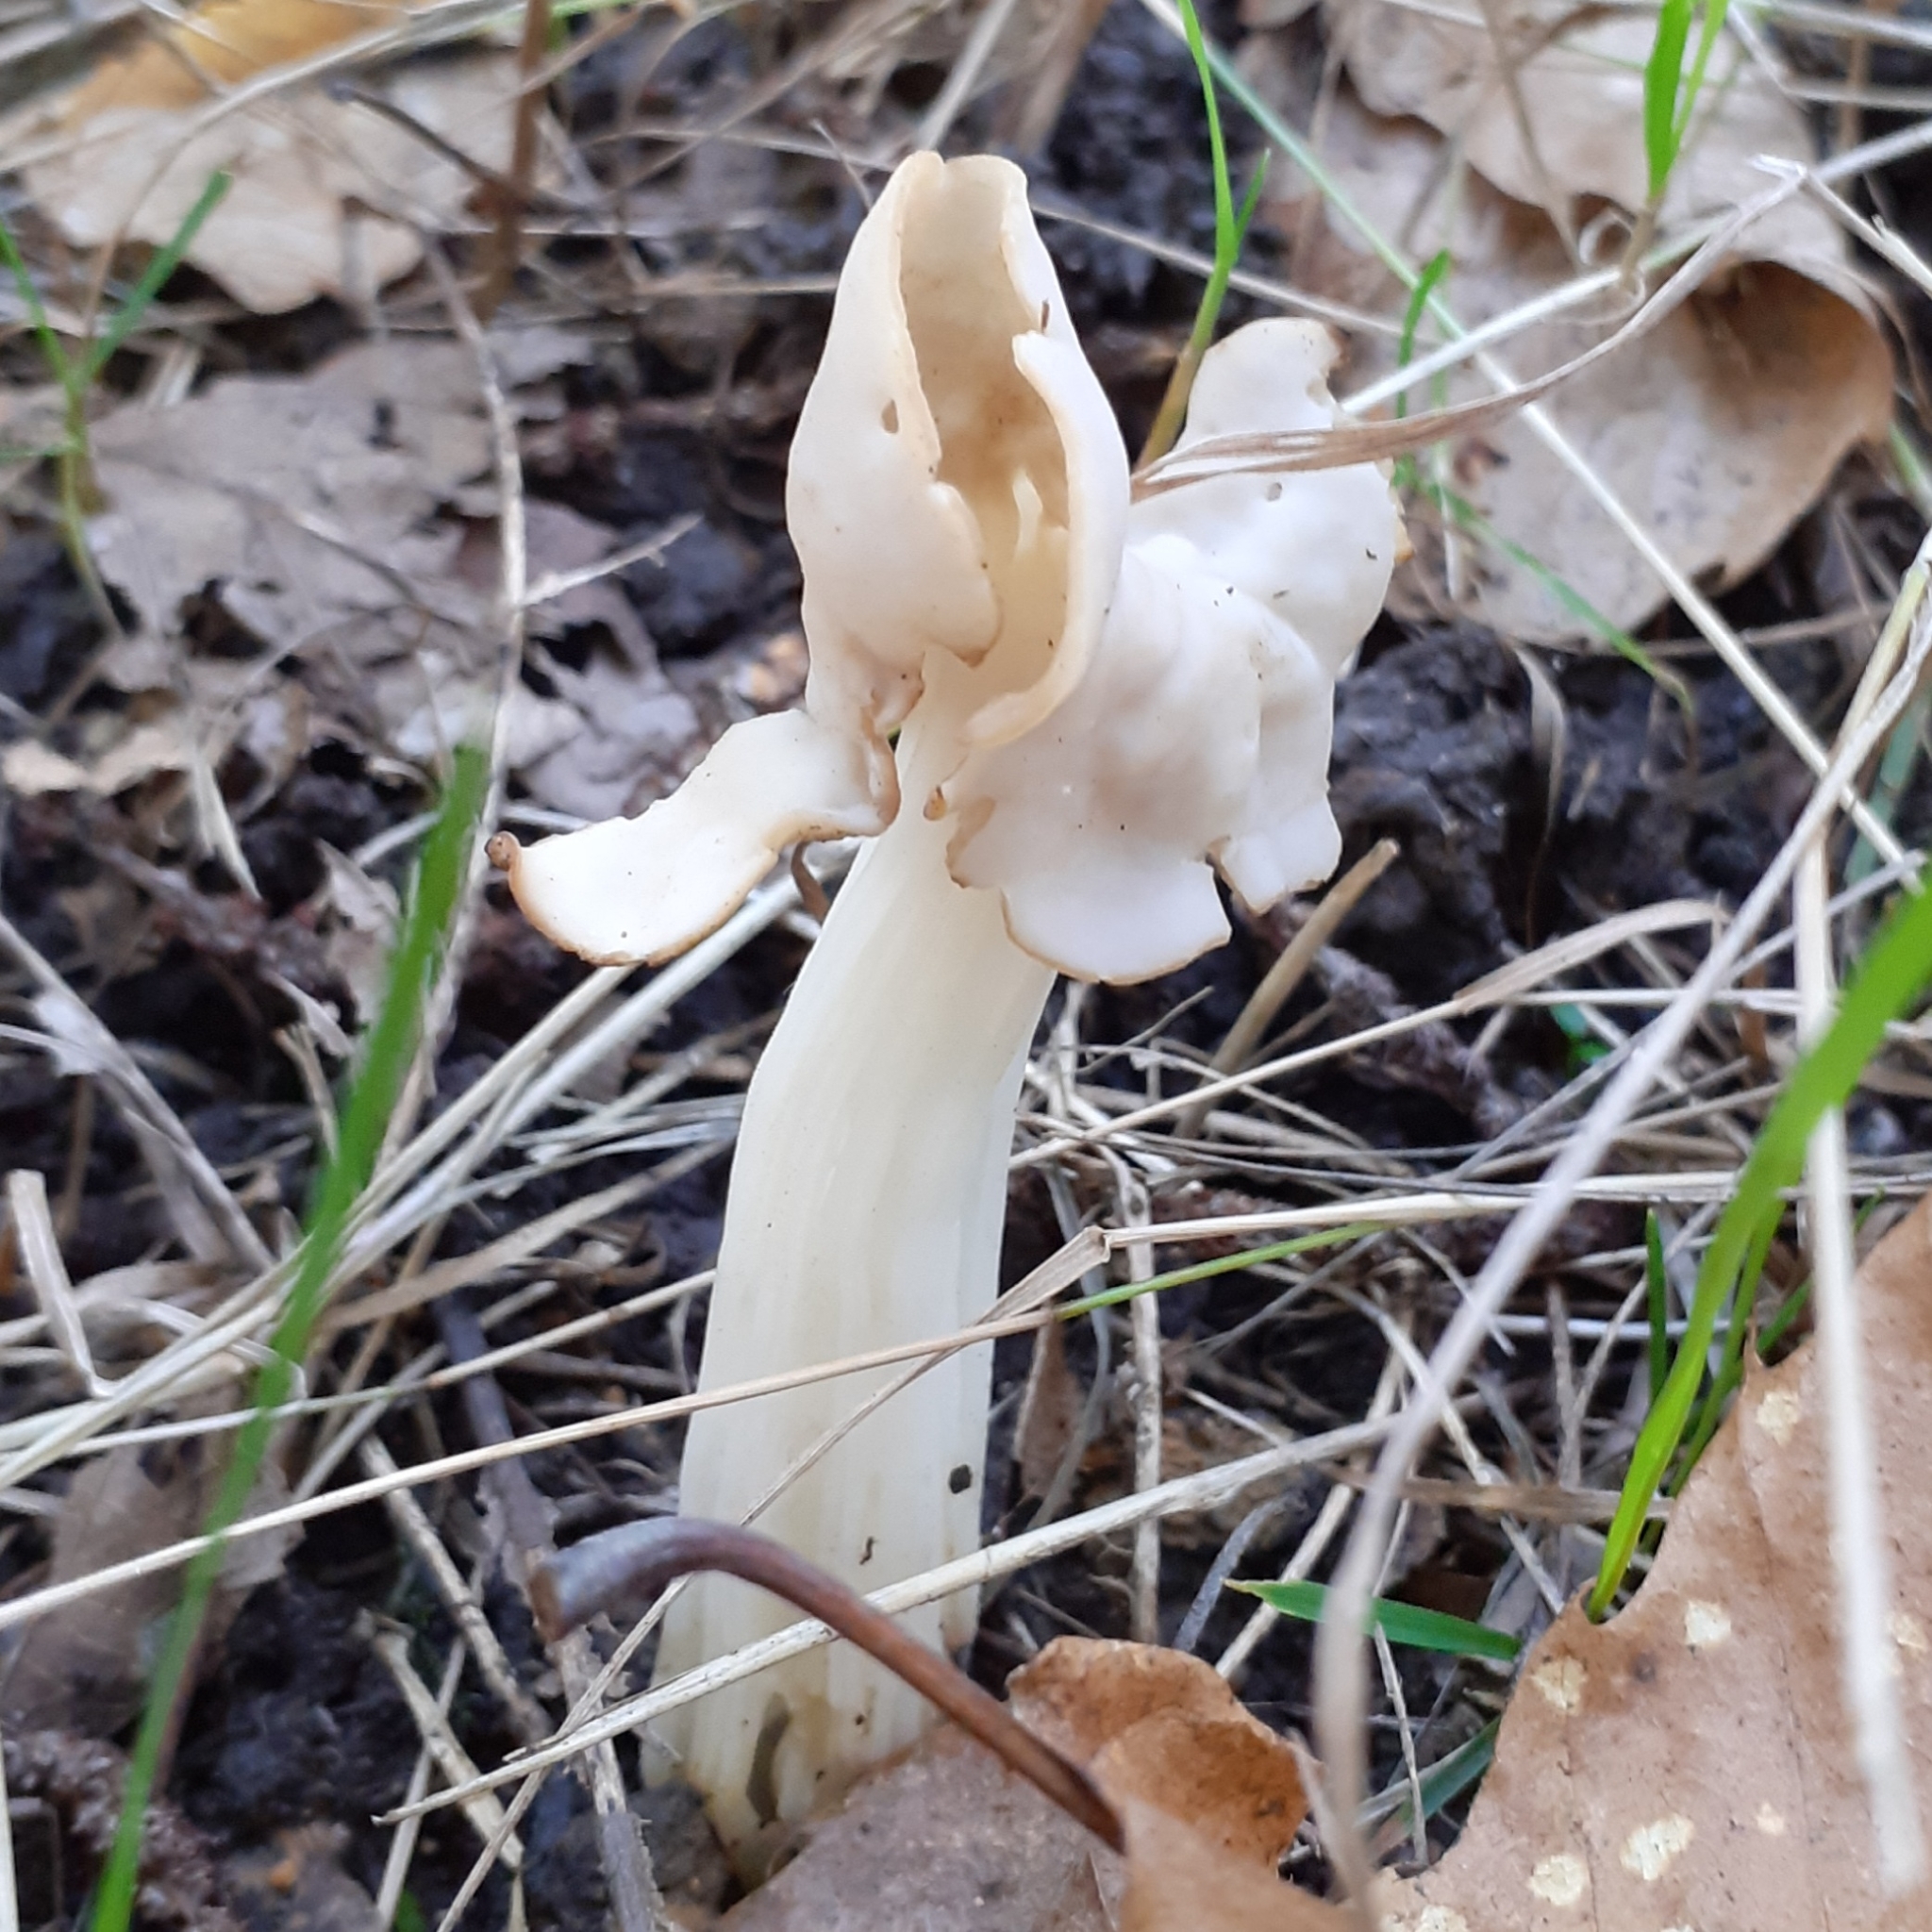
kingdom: Fungi
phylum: Ascomycota
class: Pezizomycetes
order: Pezizales
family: Helvellaceae
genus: Helvella
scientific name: Helvella crispa
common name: White saddle
